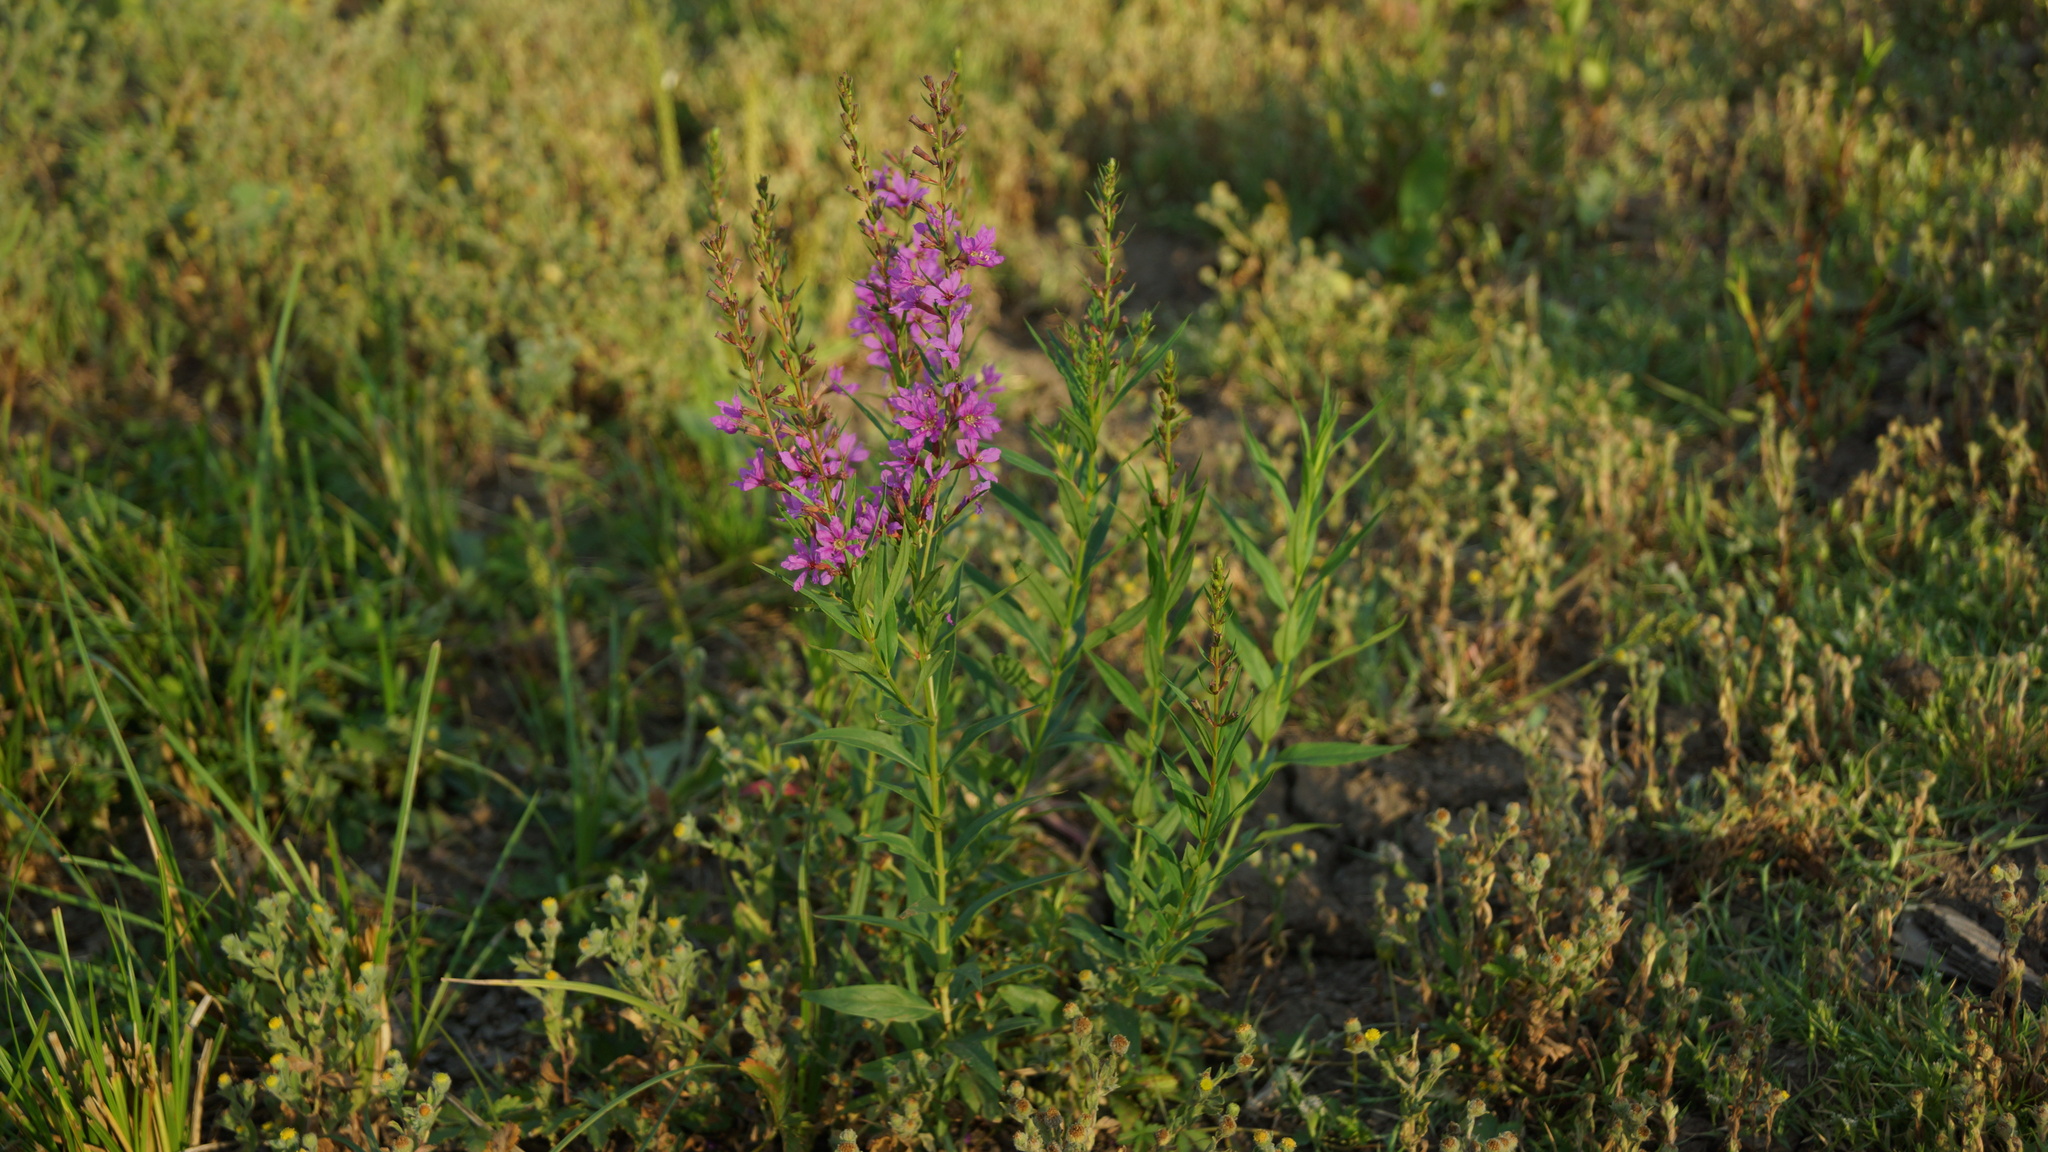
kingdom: Plantae
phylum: Tracheophyta
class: Magnoliopsida
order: Myrtales
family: Lythraceae
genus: Lythrum
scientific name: Lythrum salicaria
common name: Purple loosestrife
